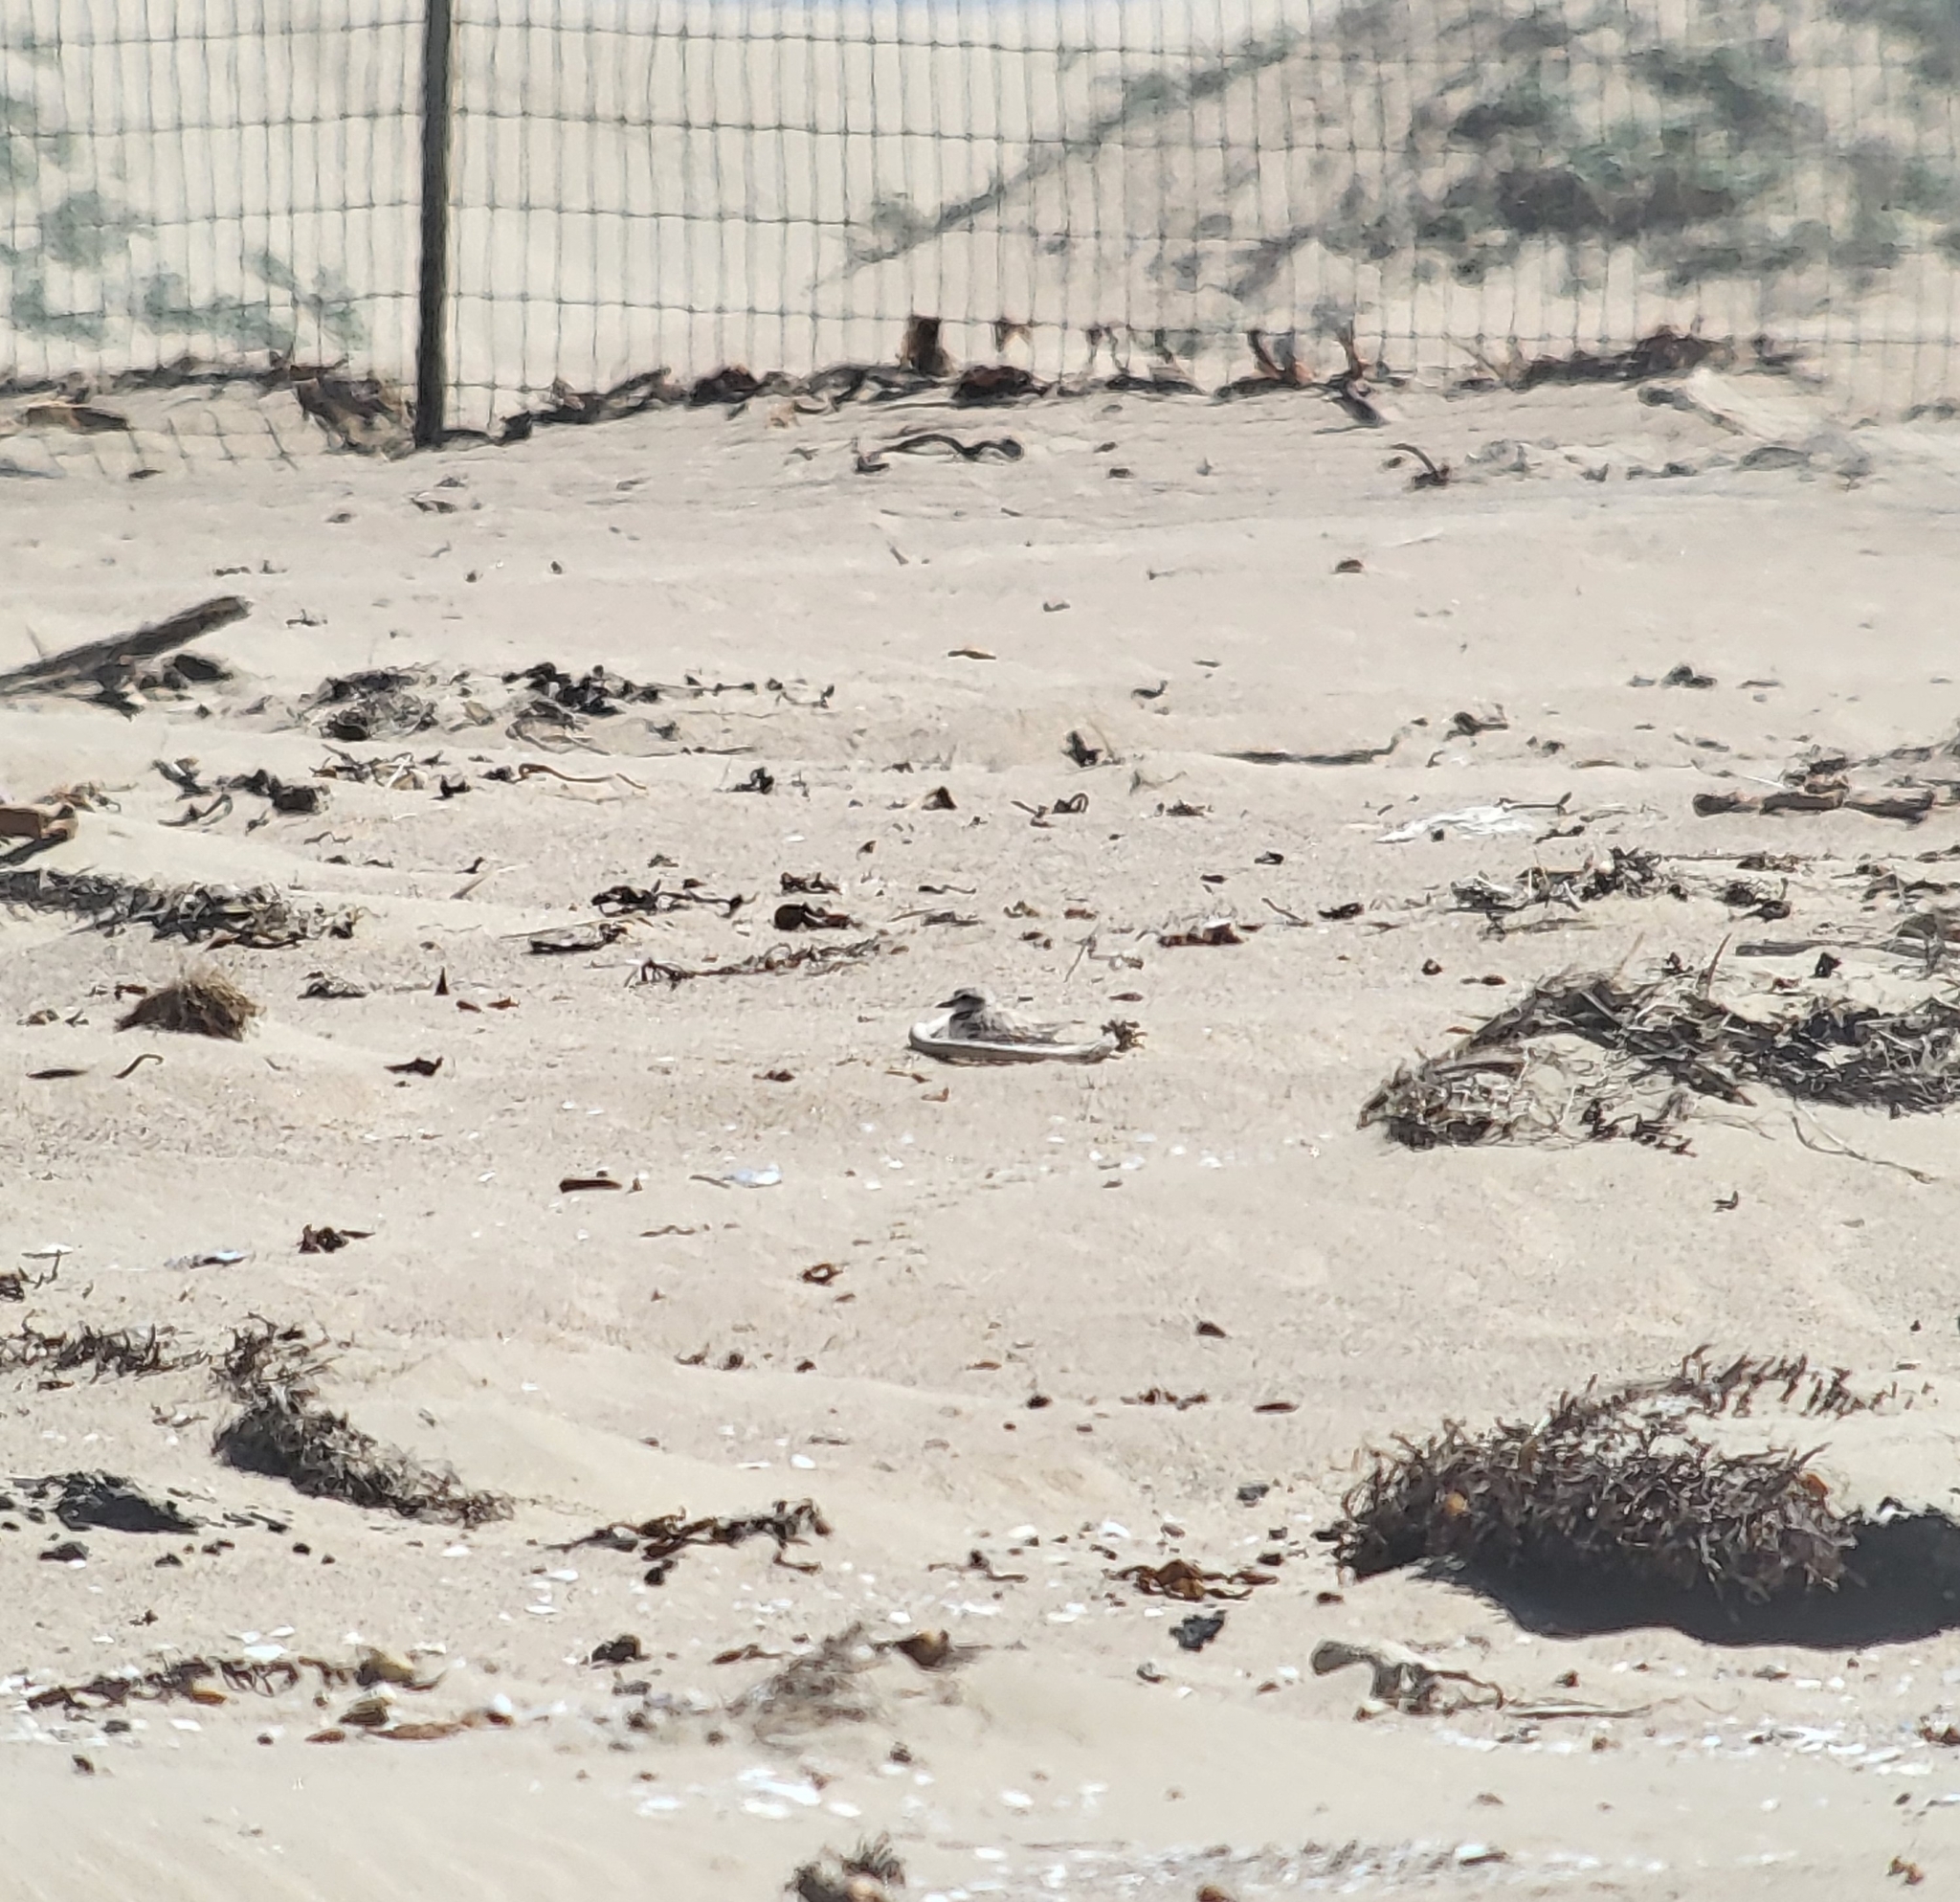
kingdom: Animalia
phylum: Chordata
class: Aves
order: Charadriiformes
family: Charadriidae
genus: Anarhynchus
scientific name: Anarhynchus
